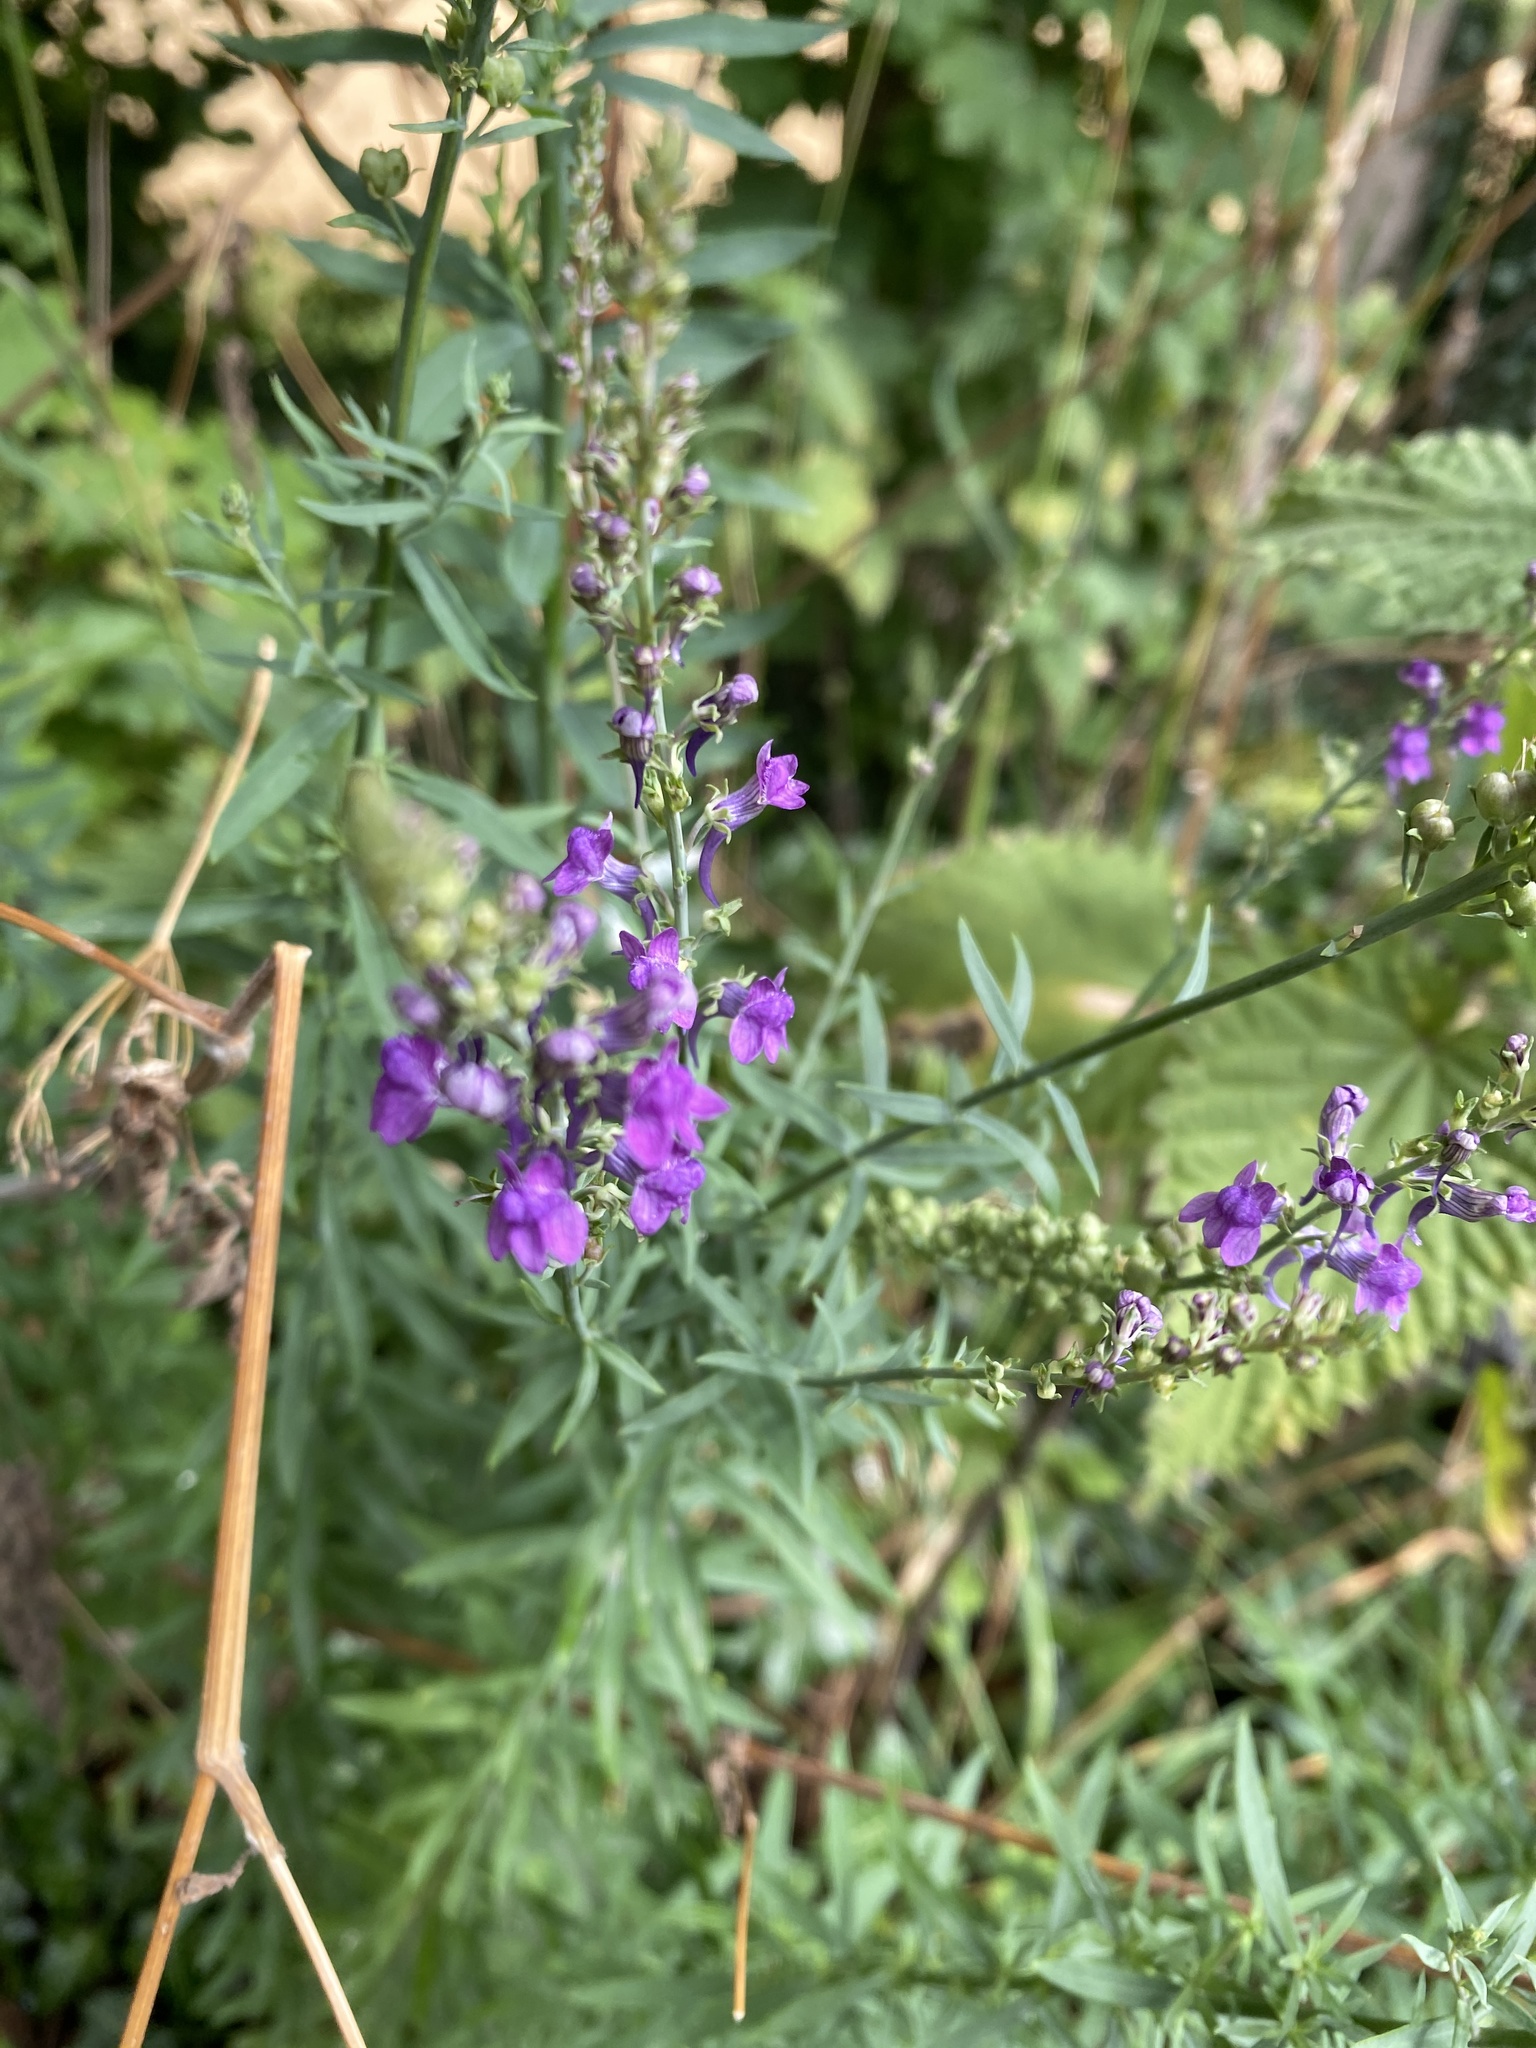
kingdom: Plantae
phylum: Tracheophyta
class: Magnoliopsida
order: Lamiales
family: Plantaginaceae
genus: Linaria
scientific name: Linaria purpurea
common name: Purple toadflax
